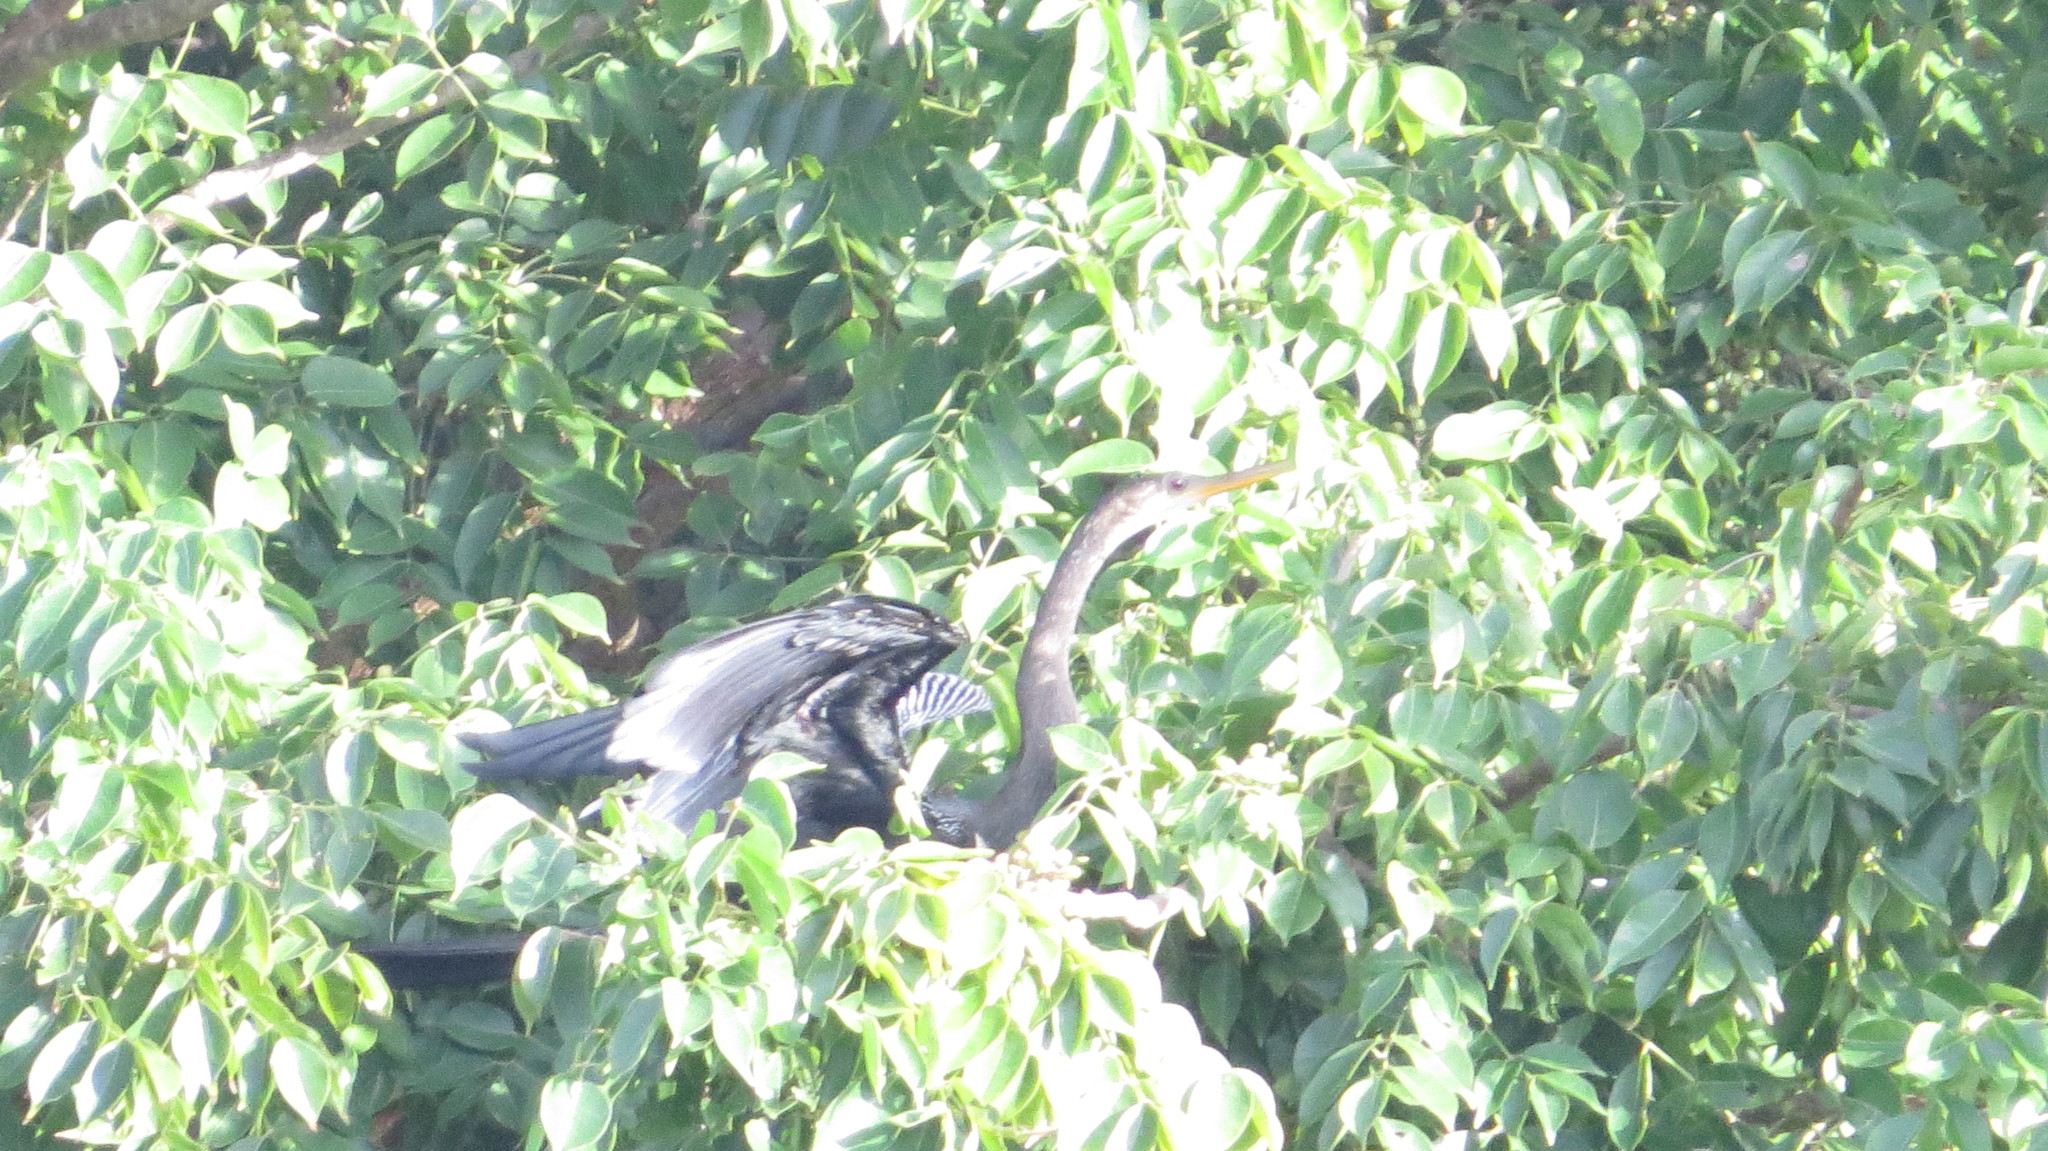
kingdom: Animalia
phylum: Chordata
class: Aves
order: Suliformes
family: Anhingidae
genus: Anhinga
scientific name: Anhinga anhinga
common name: Anhinga
